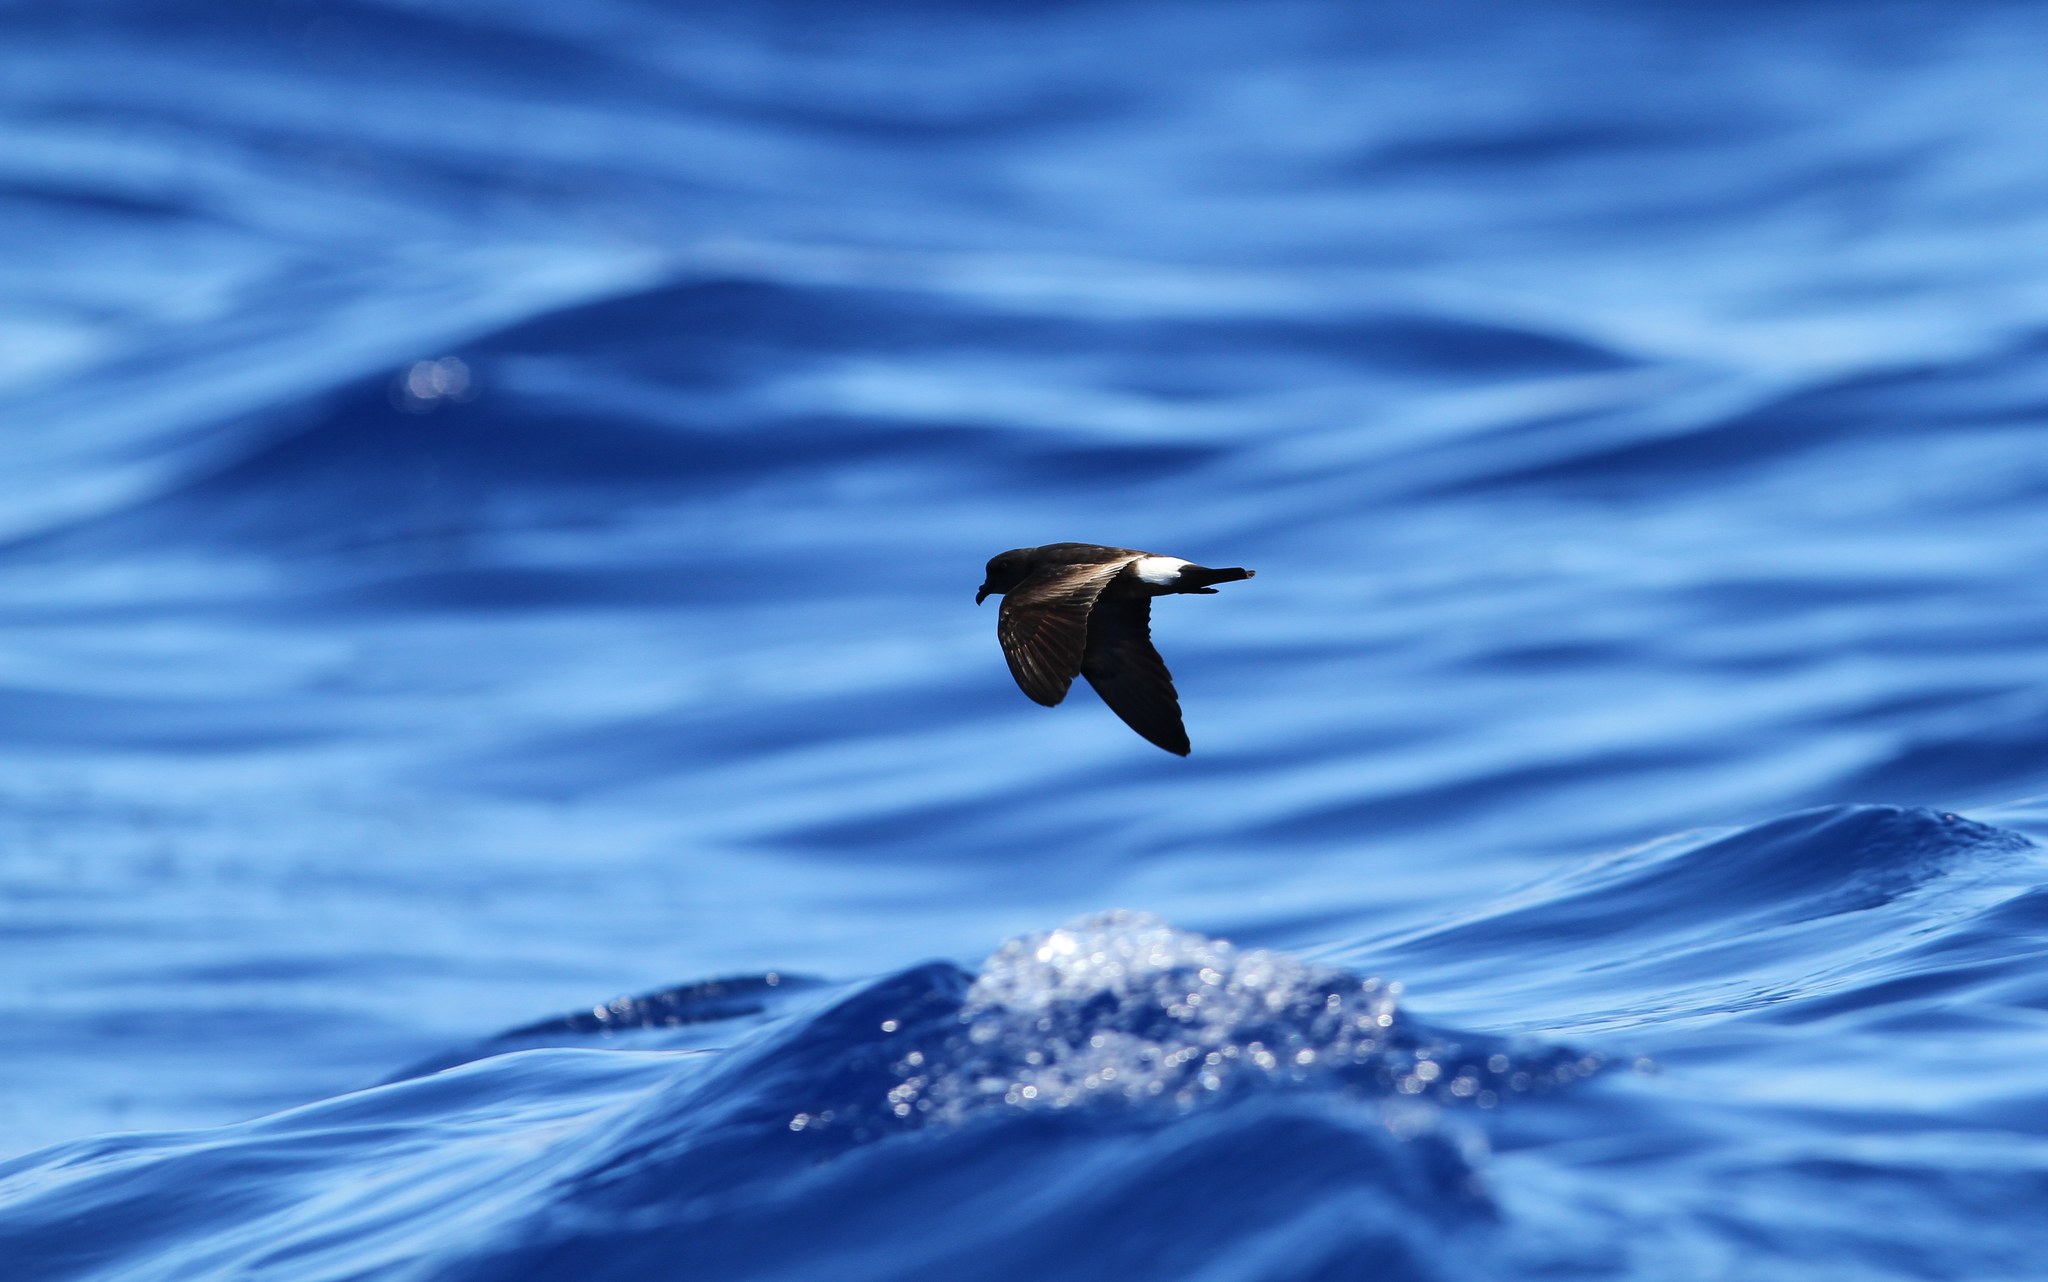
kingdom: Animalia
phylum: Chordata
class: Aves
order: Procellariiformes
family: Hydrobatidae
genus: Oceanodroma
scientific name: Oceanodroma castro
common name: Band-rumped storm-petrel
